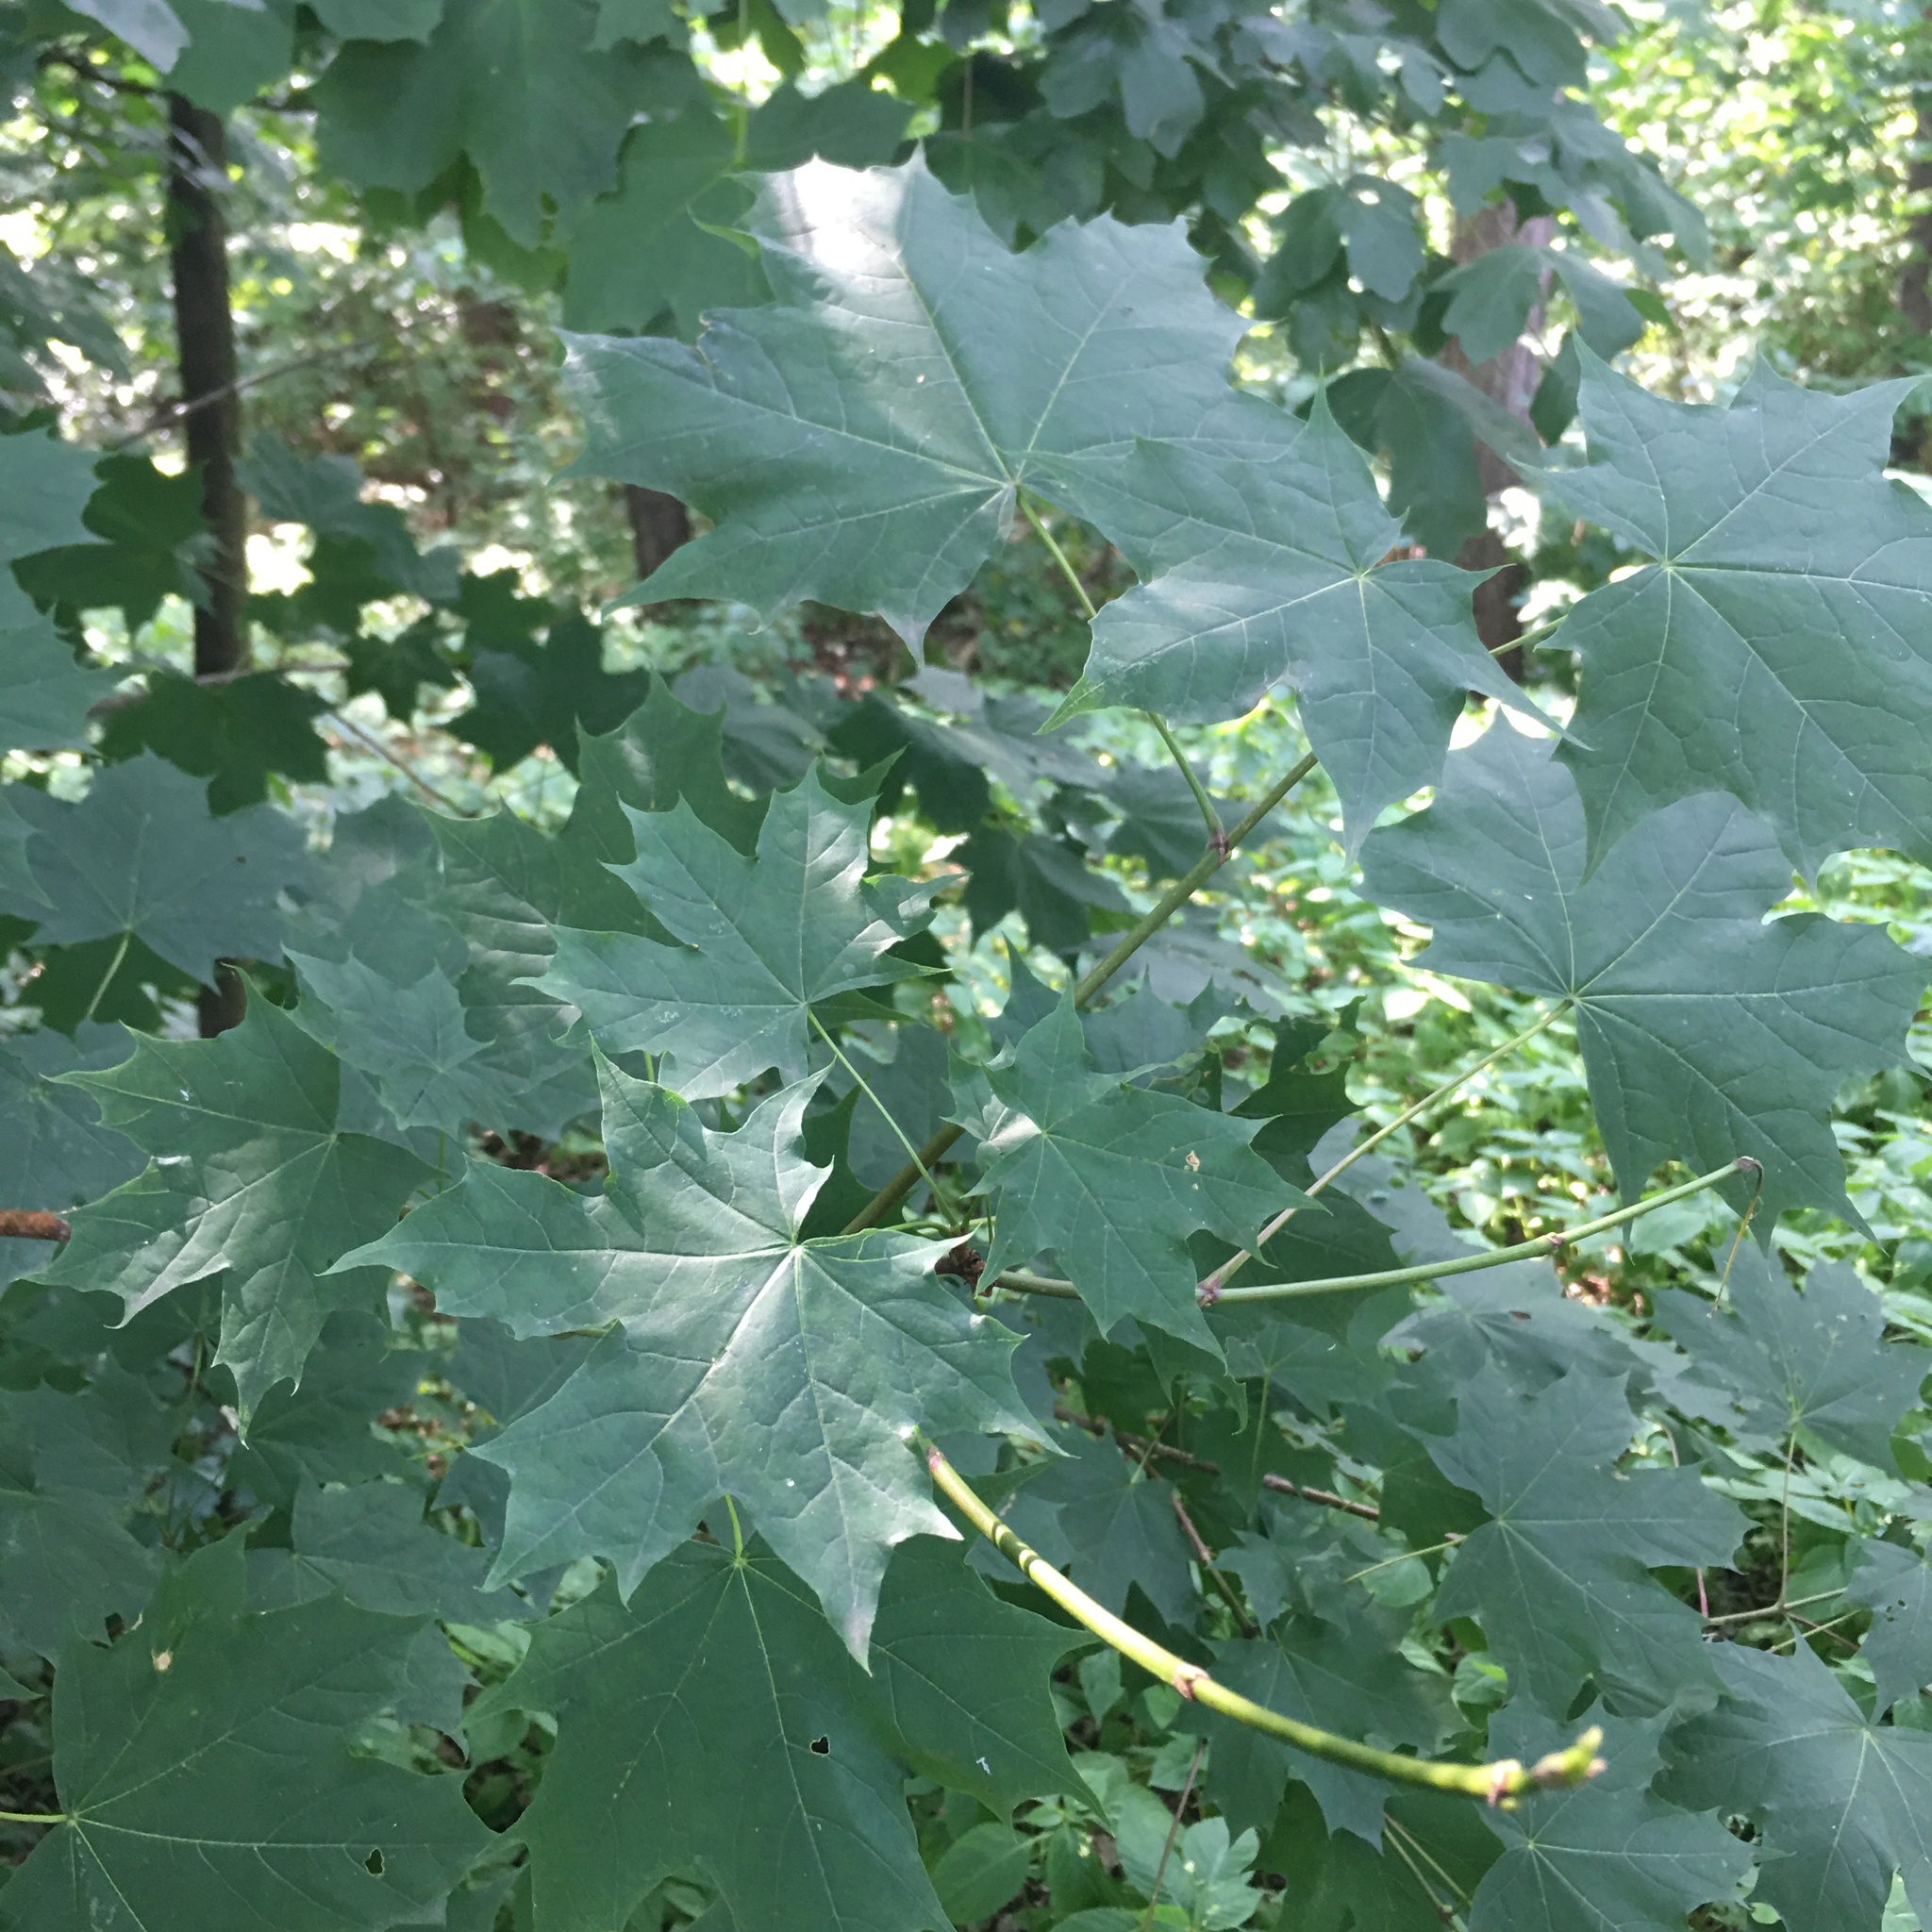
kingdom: Plantae
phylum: Tracheophyta
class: Magnoliopsida
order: Sapindales
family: Sapindaceae
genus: Acer
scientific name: Acer platanoides
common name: Norway maple
